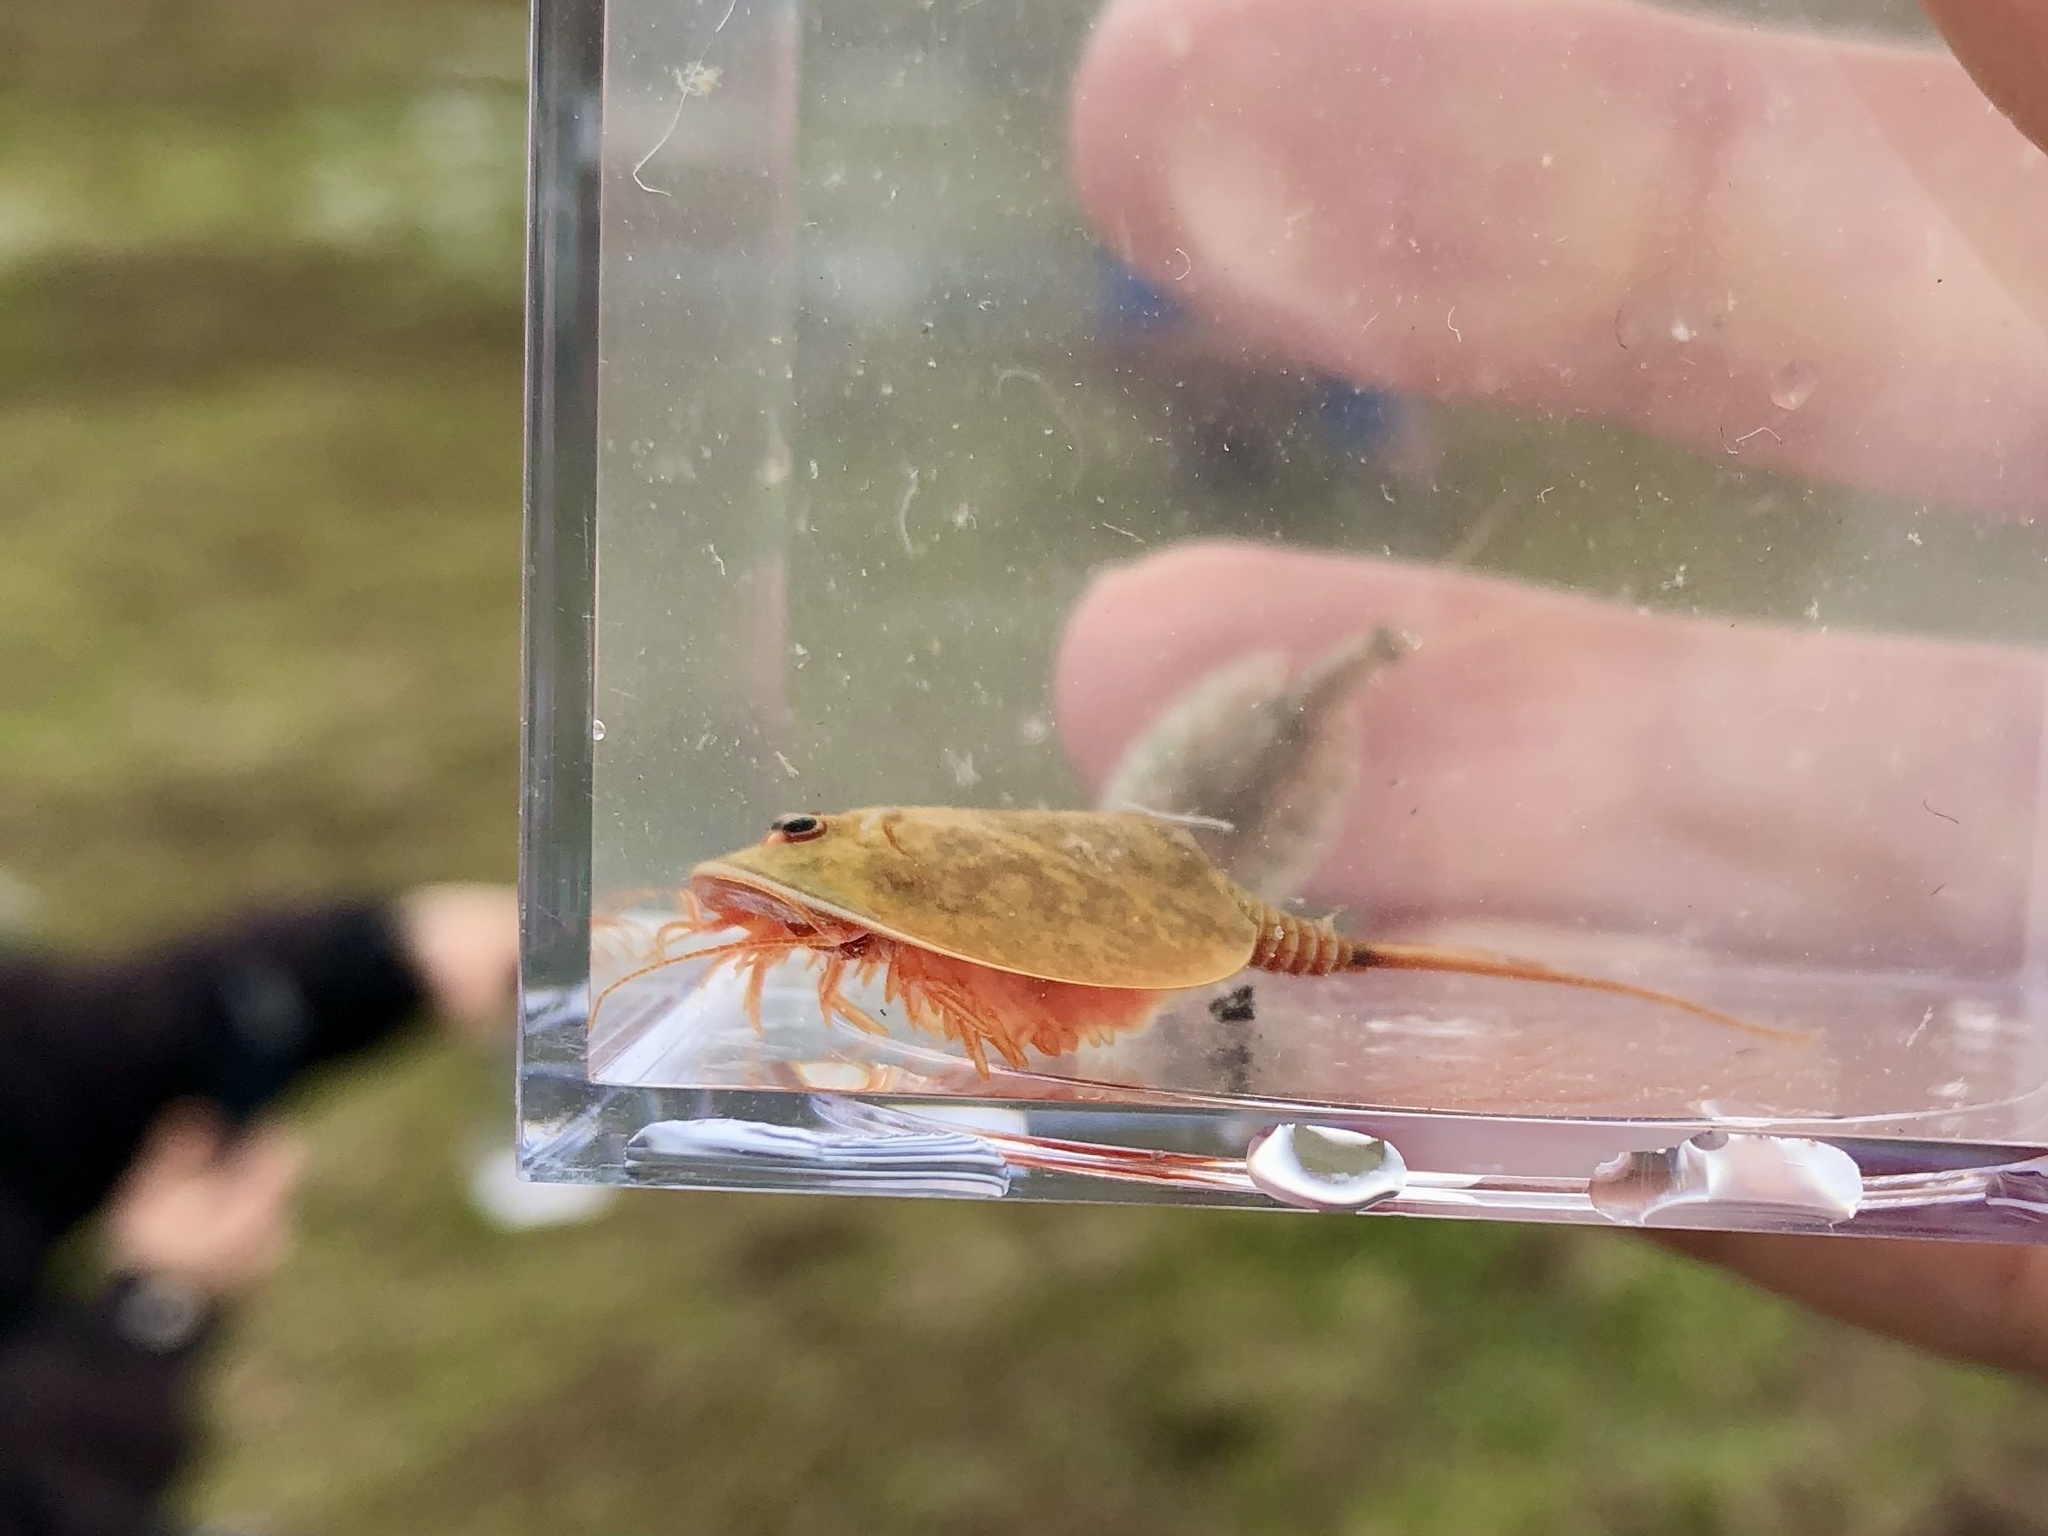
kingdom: Animalia
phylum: Arthropoda
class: Branchiopoda
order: Notostraca
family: Triopsidae
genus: Lepidurus
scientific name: Lepidurus packardi
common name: Vernal pool tadpole shrimp
